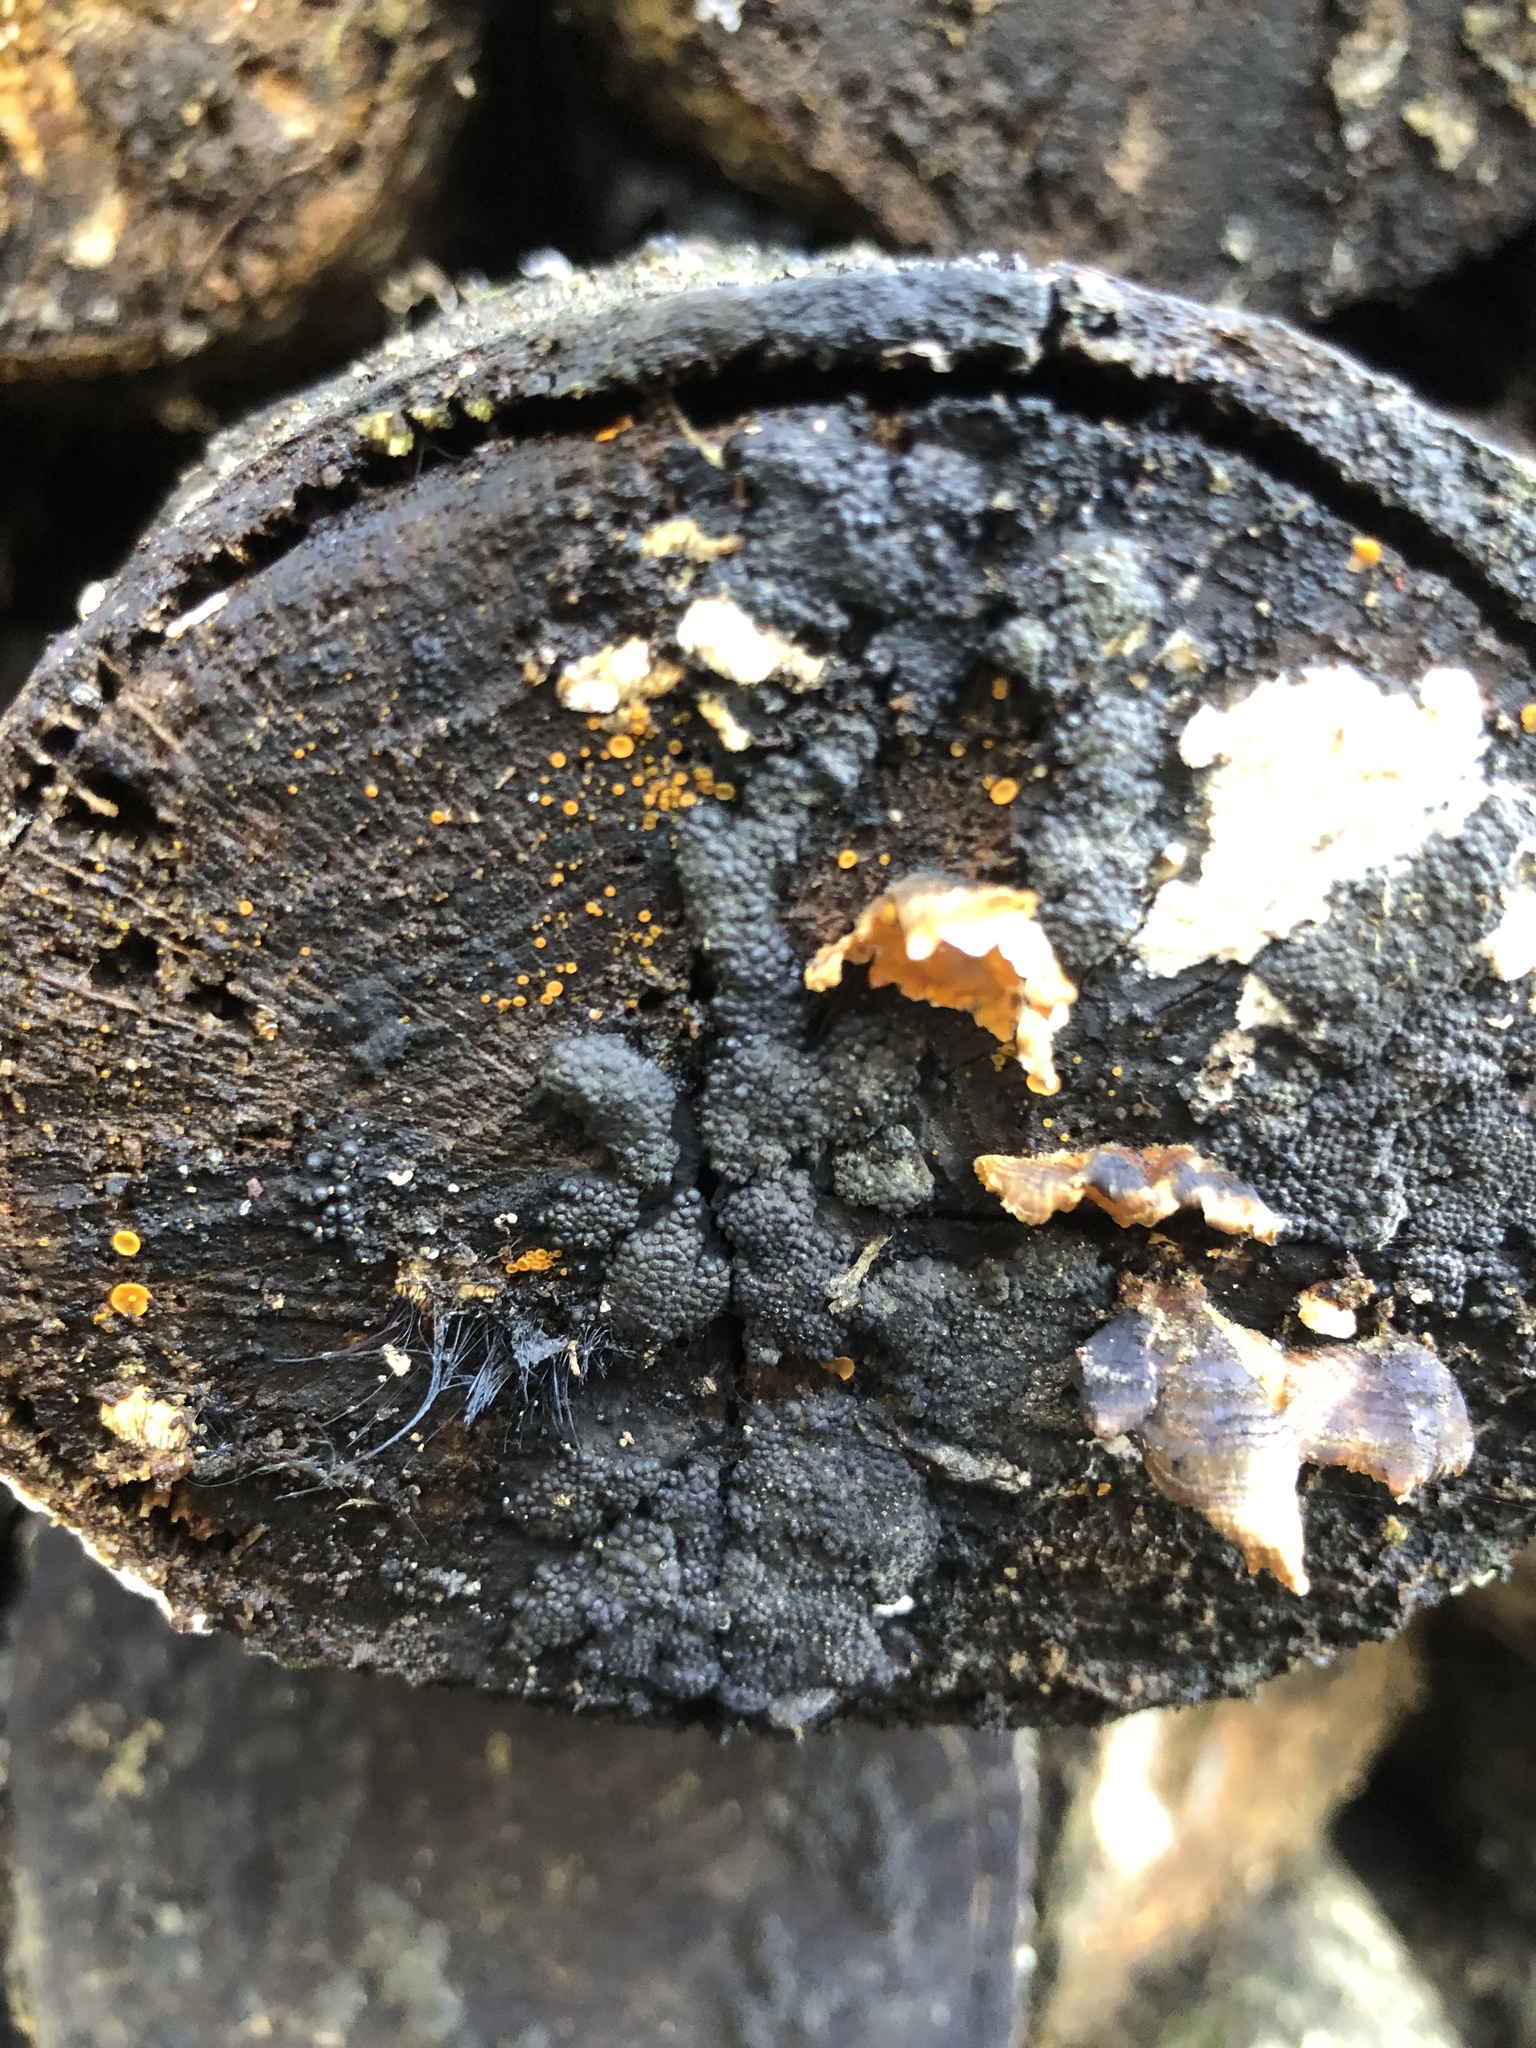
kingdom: Fungi
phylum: Ascomycota
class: Leotiomycetes
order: Helotiales
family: Pezizellaceae
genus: Calycina
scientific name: Calycina citrina
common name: Yellow fairy cups
